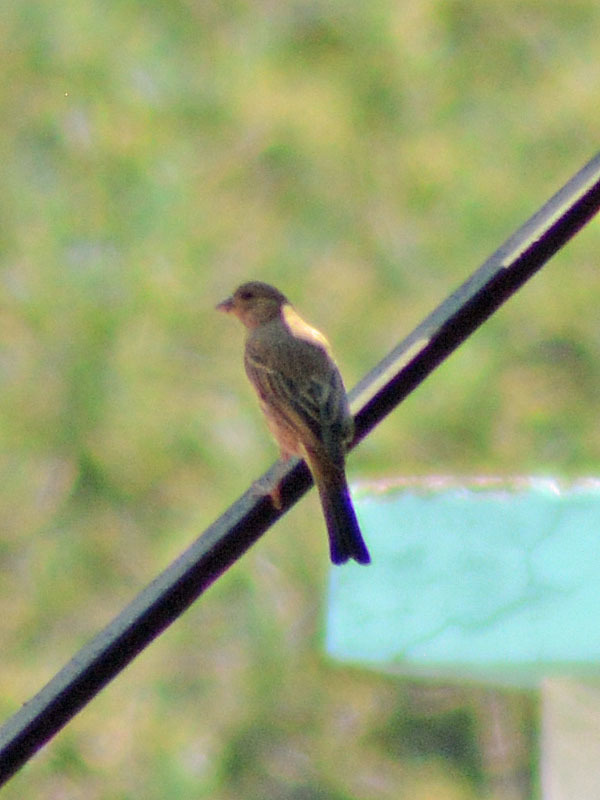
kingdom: Animalia
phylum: Chordata
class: Aves
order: Passeriformes
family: Fringillidae
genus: Haemorhous
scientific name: Haemorhous mexicanus
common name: House finch
